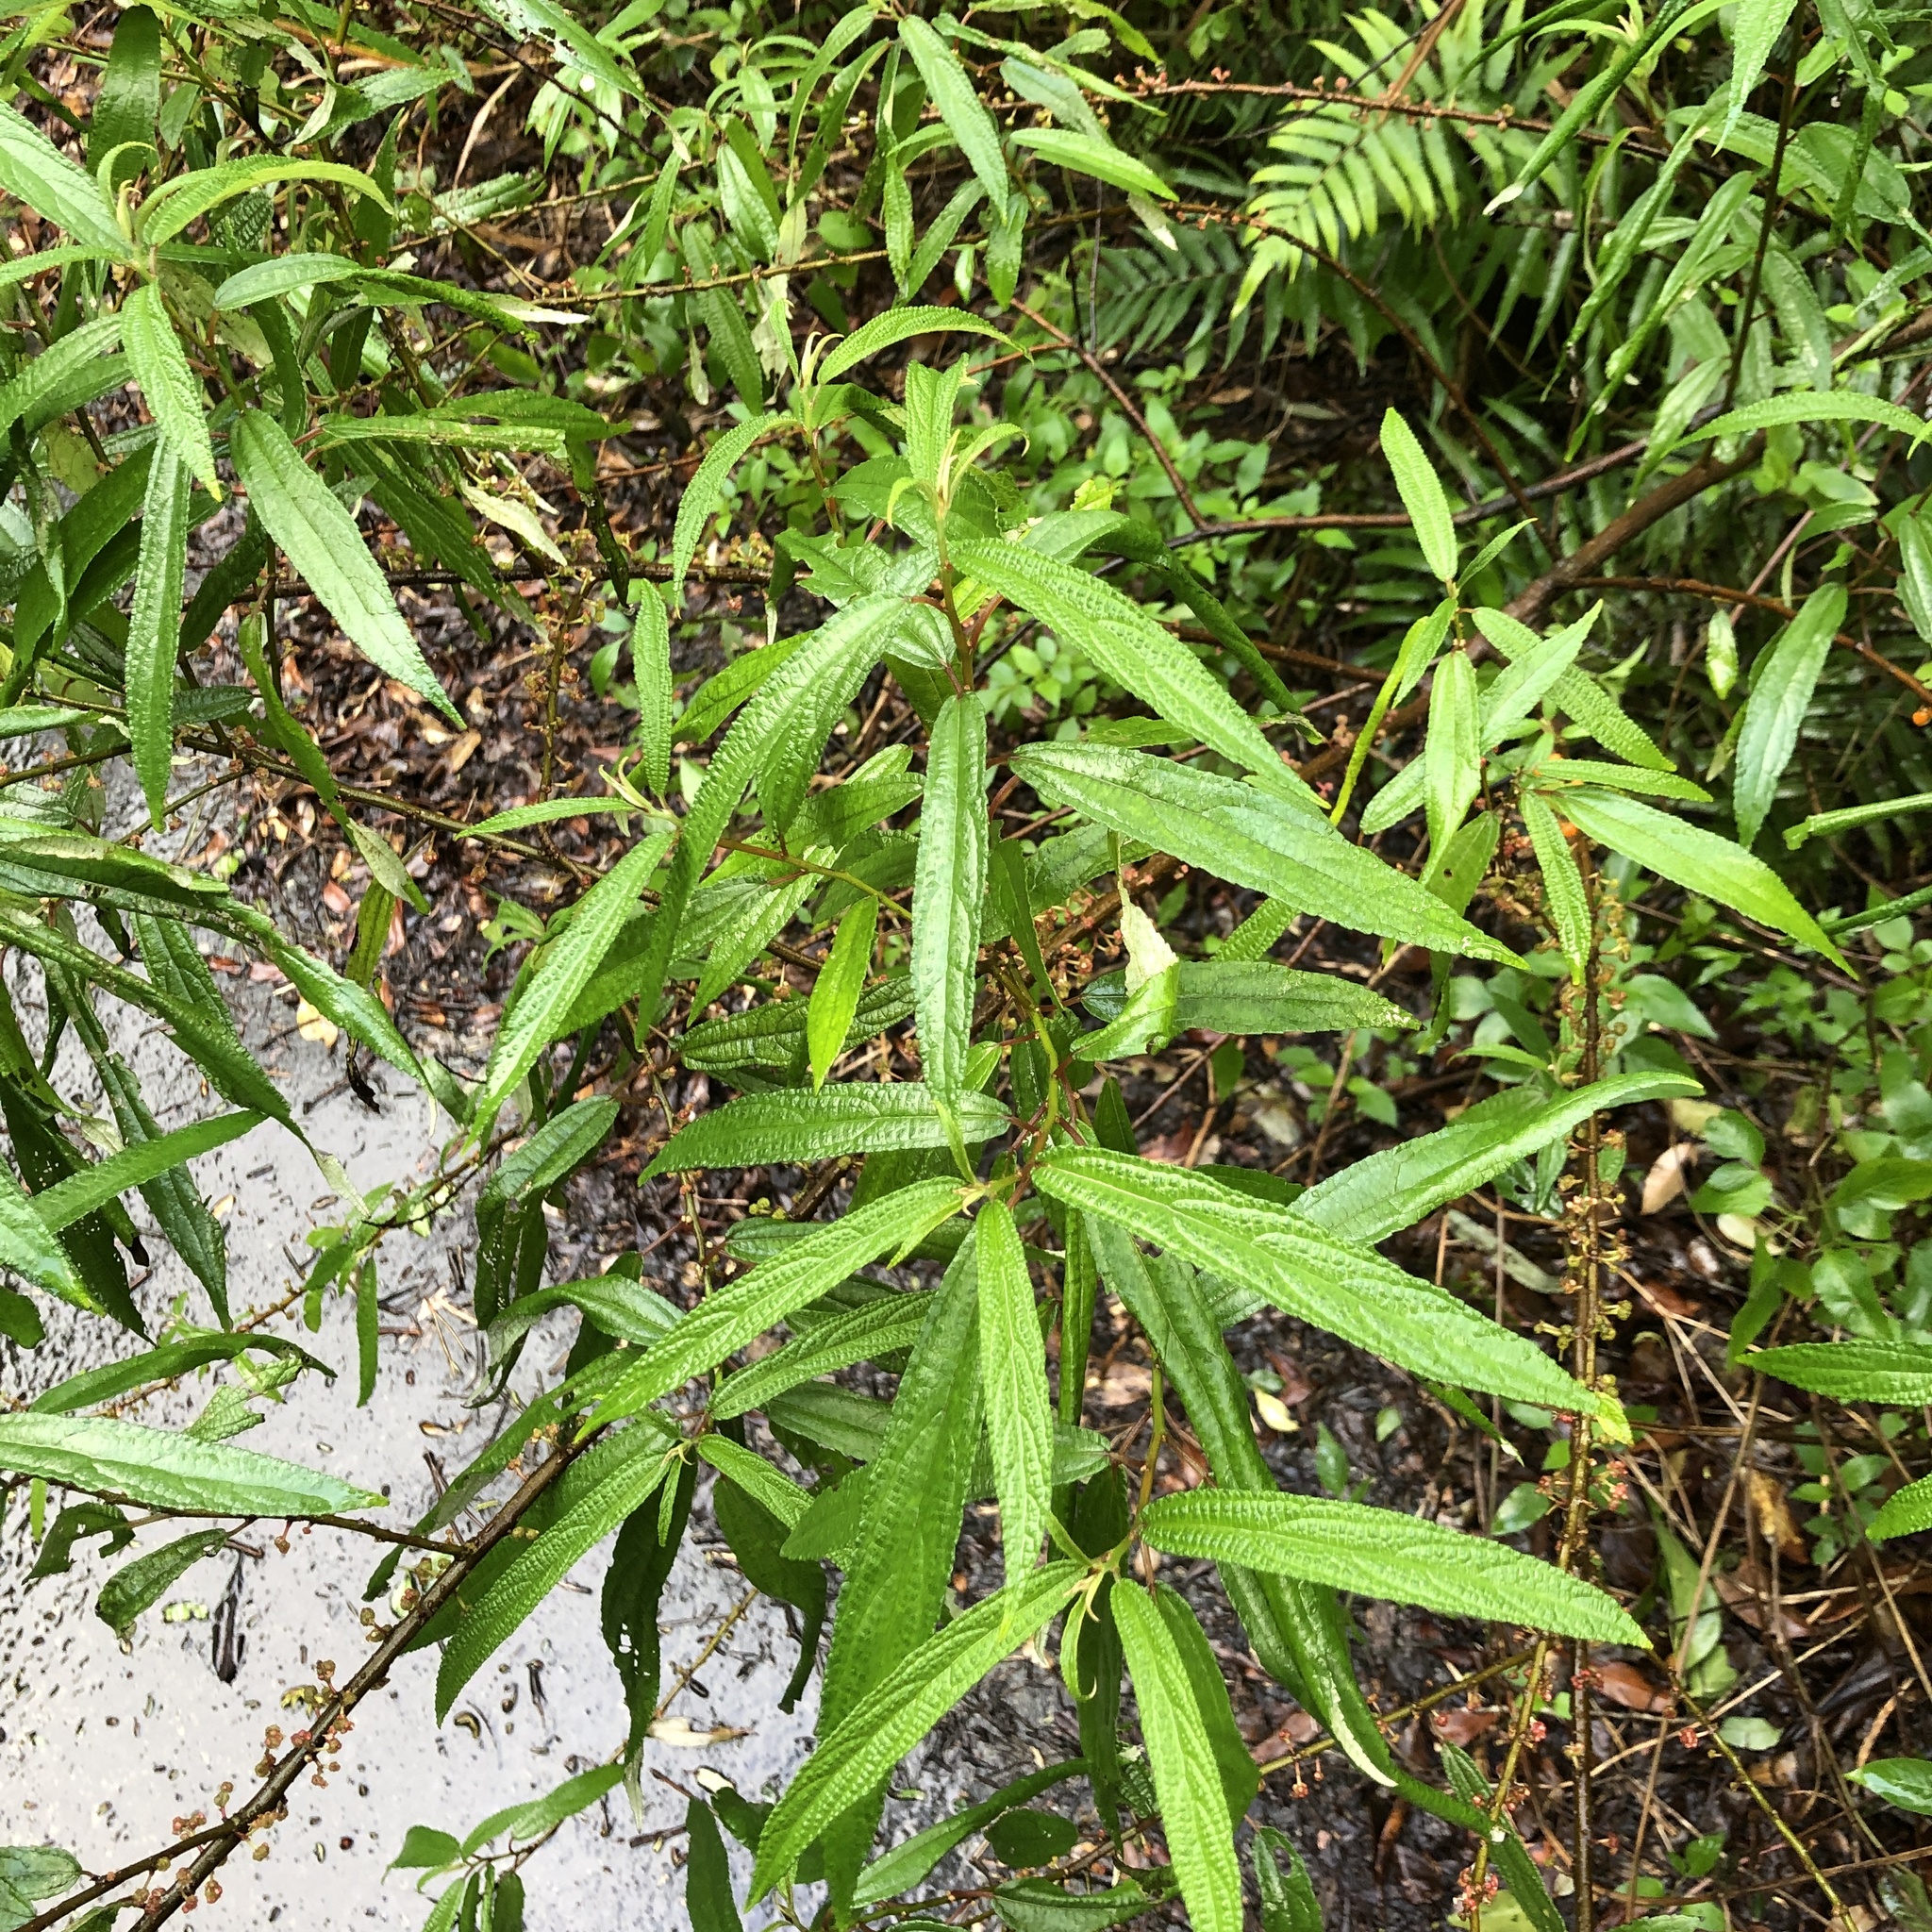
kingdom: Plantae
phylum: Tracheophyta
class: Magnoliopsida
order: Rosales
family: Urticaceae
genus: Debregeasia
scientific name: Debregeasia orientalis
